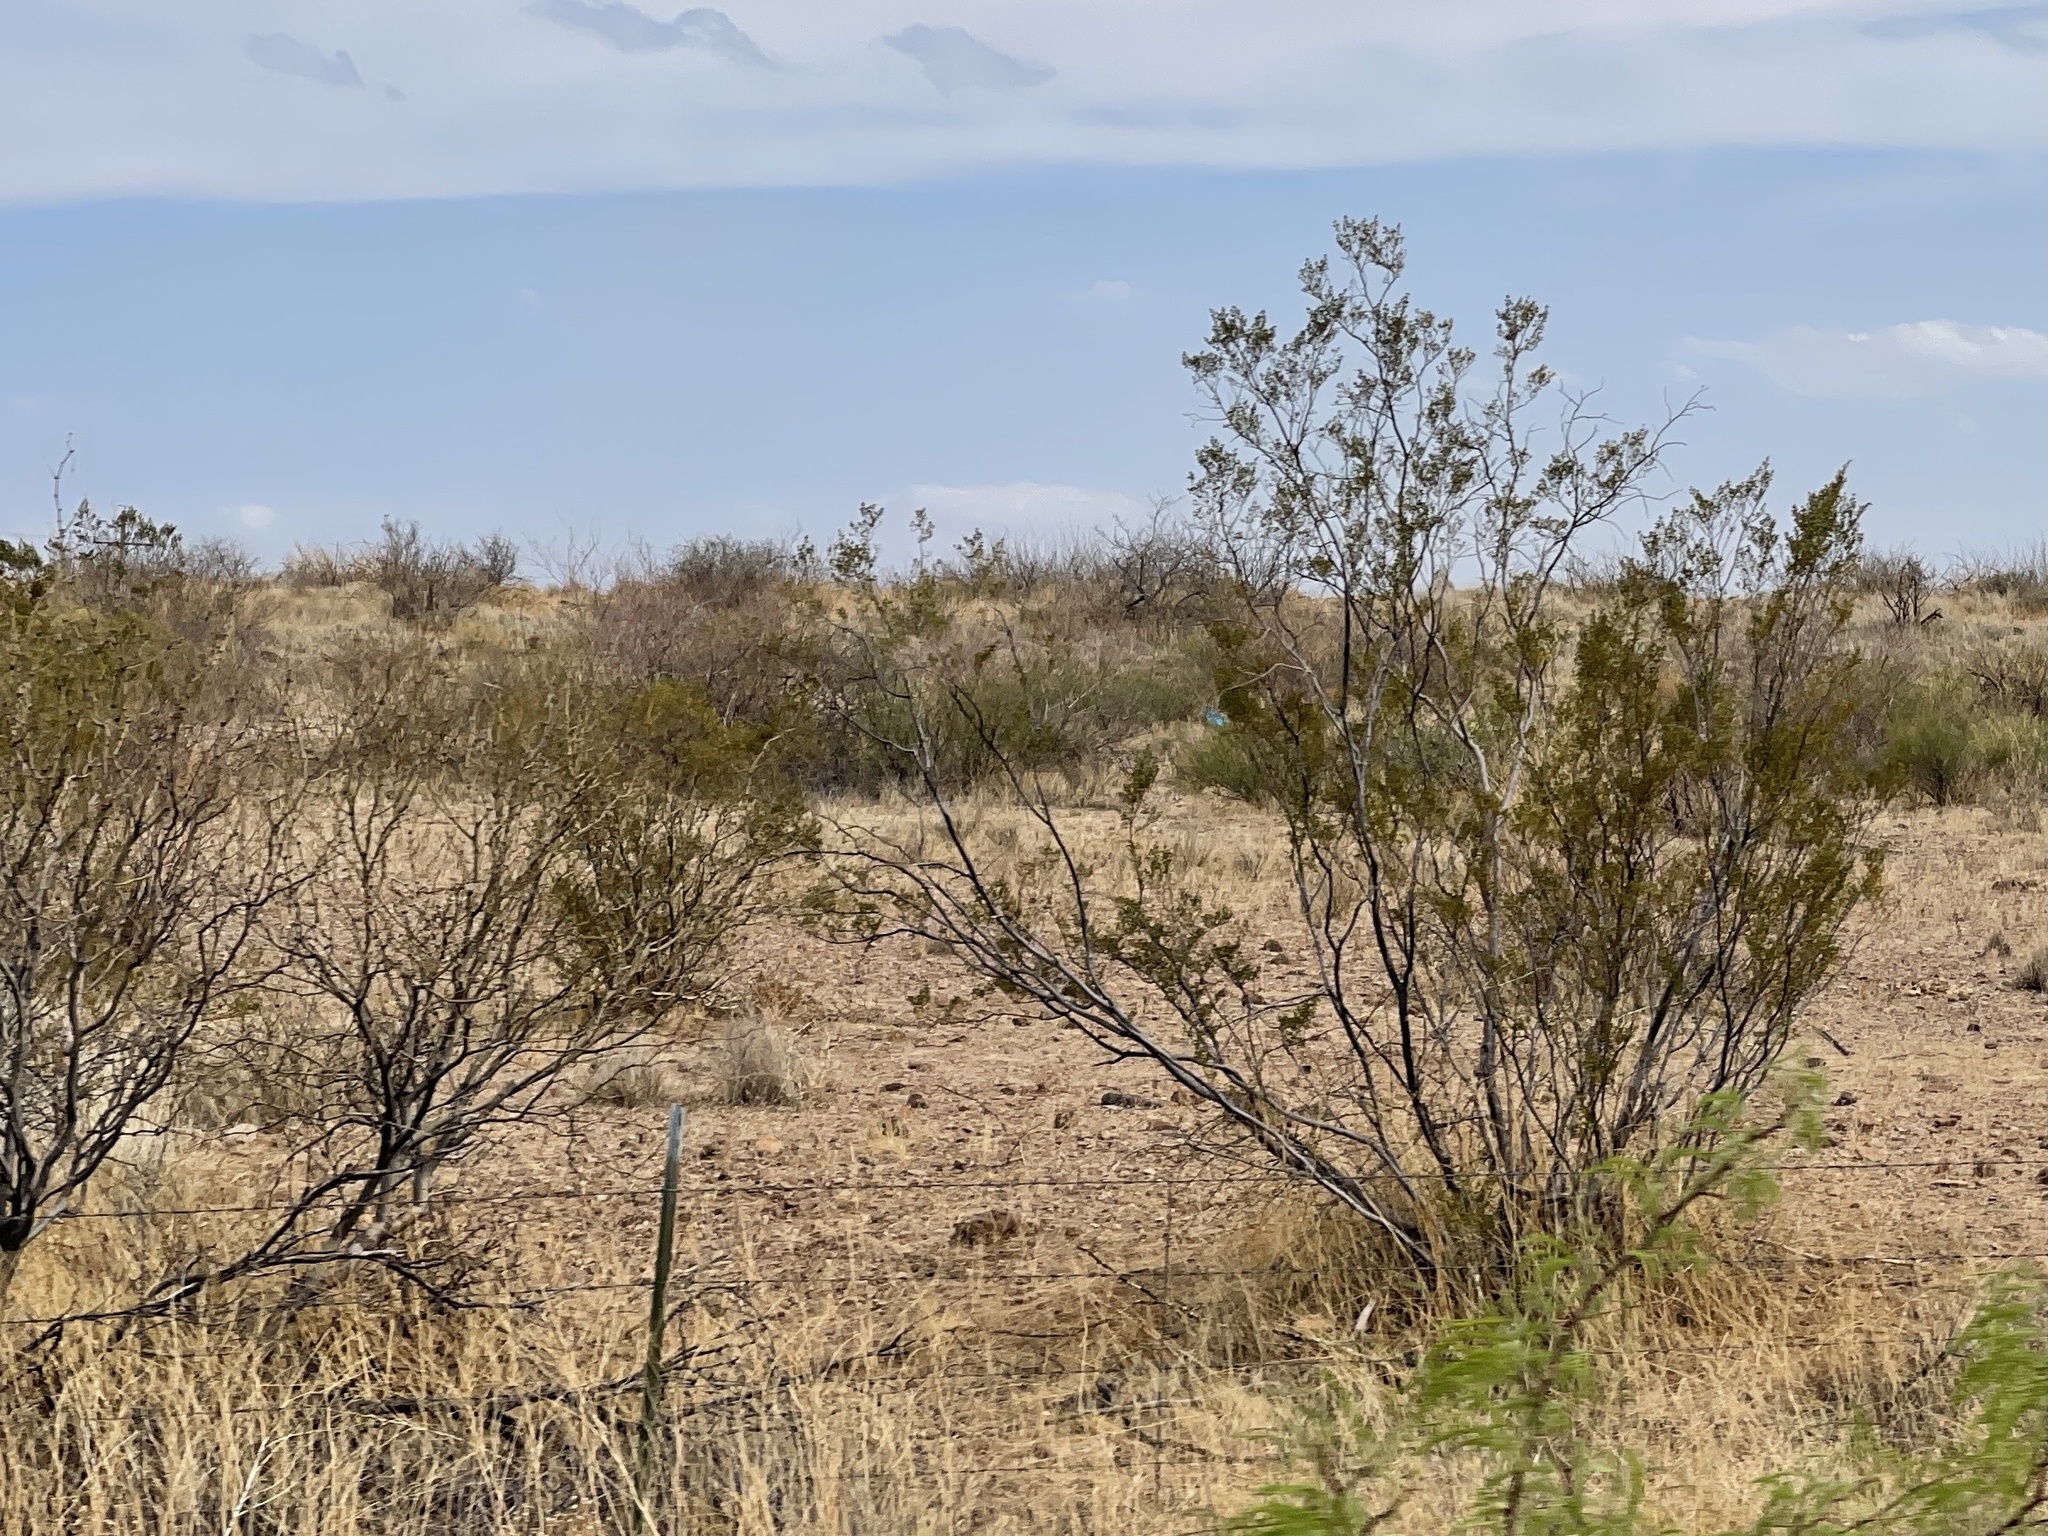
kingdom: Plantae
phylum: Tracheophyta
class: Magnoliopsida
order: Zygophyllales
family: Zygophyllaceae
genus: Larrea
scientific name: Larrea tridentata
